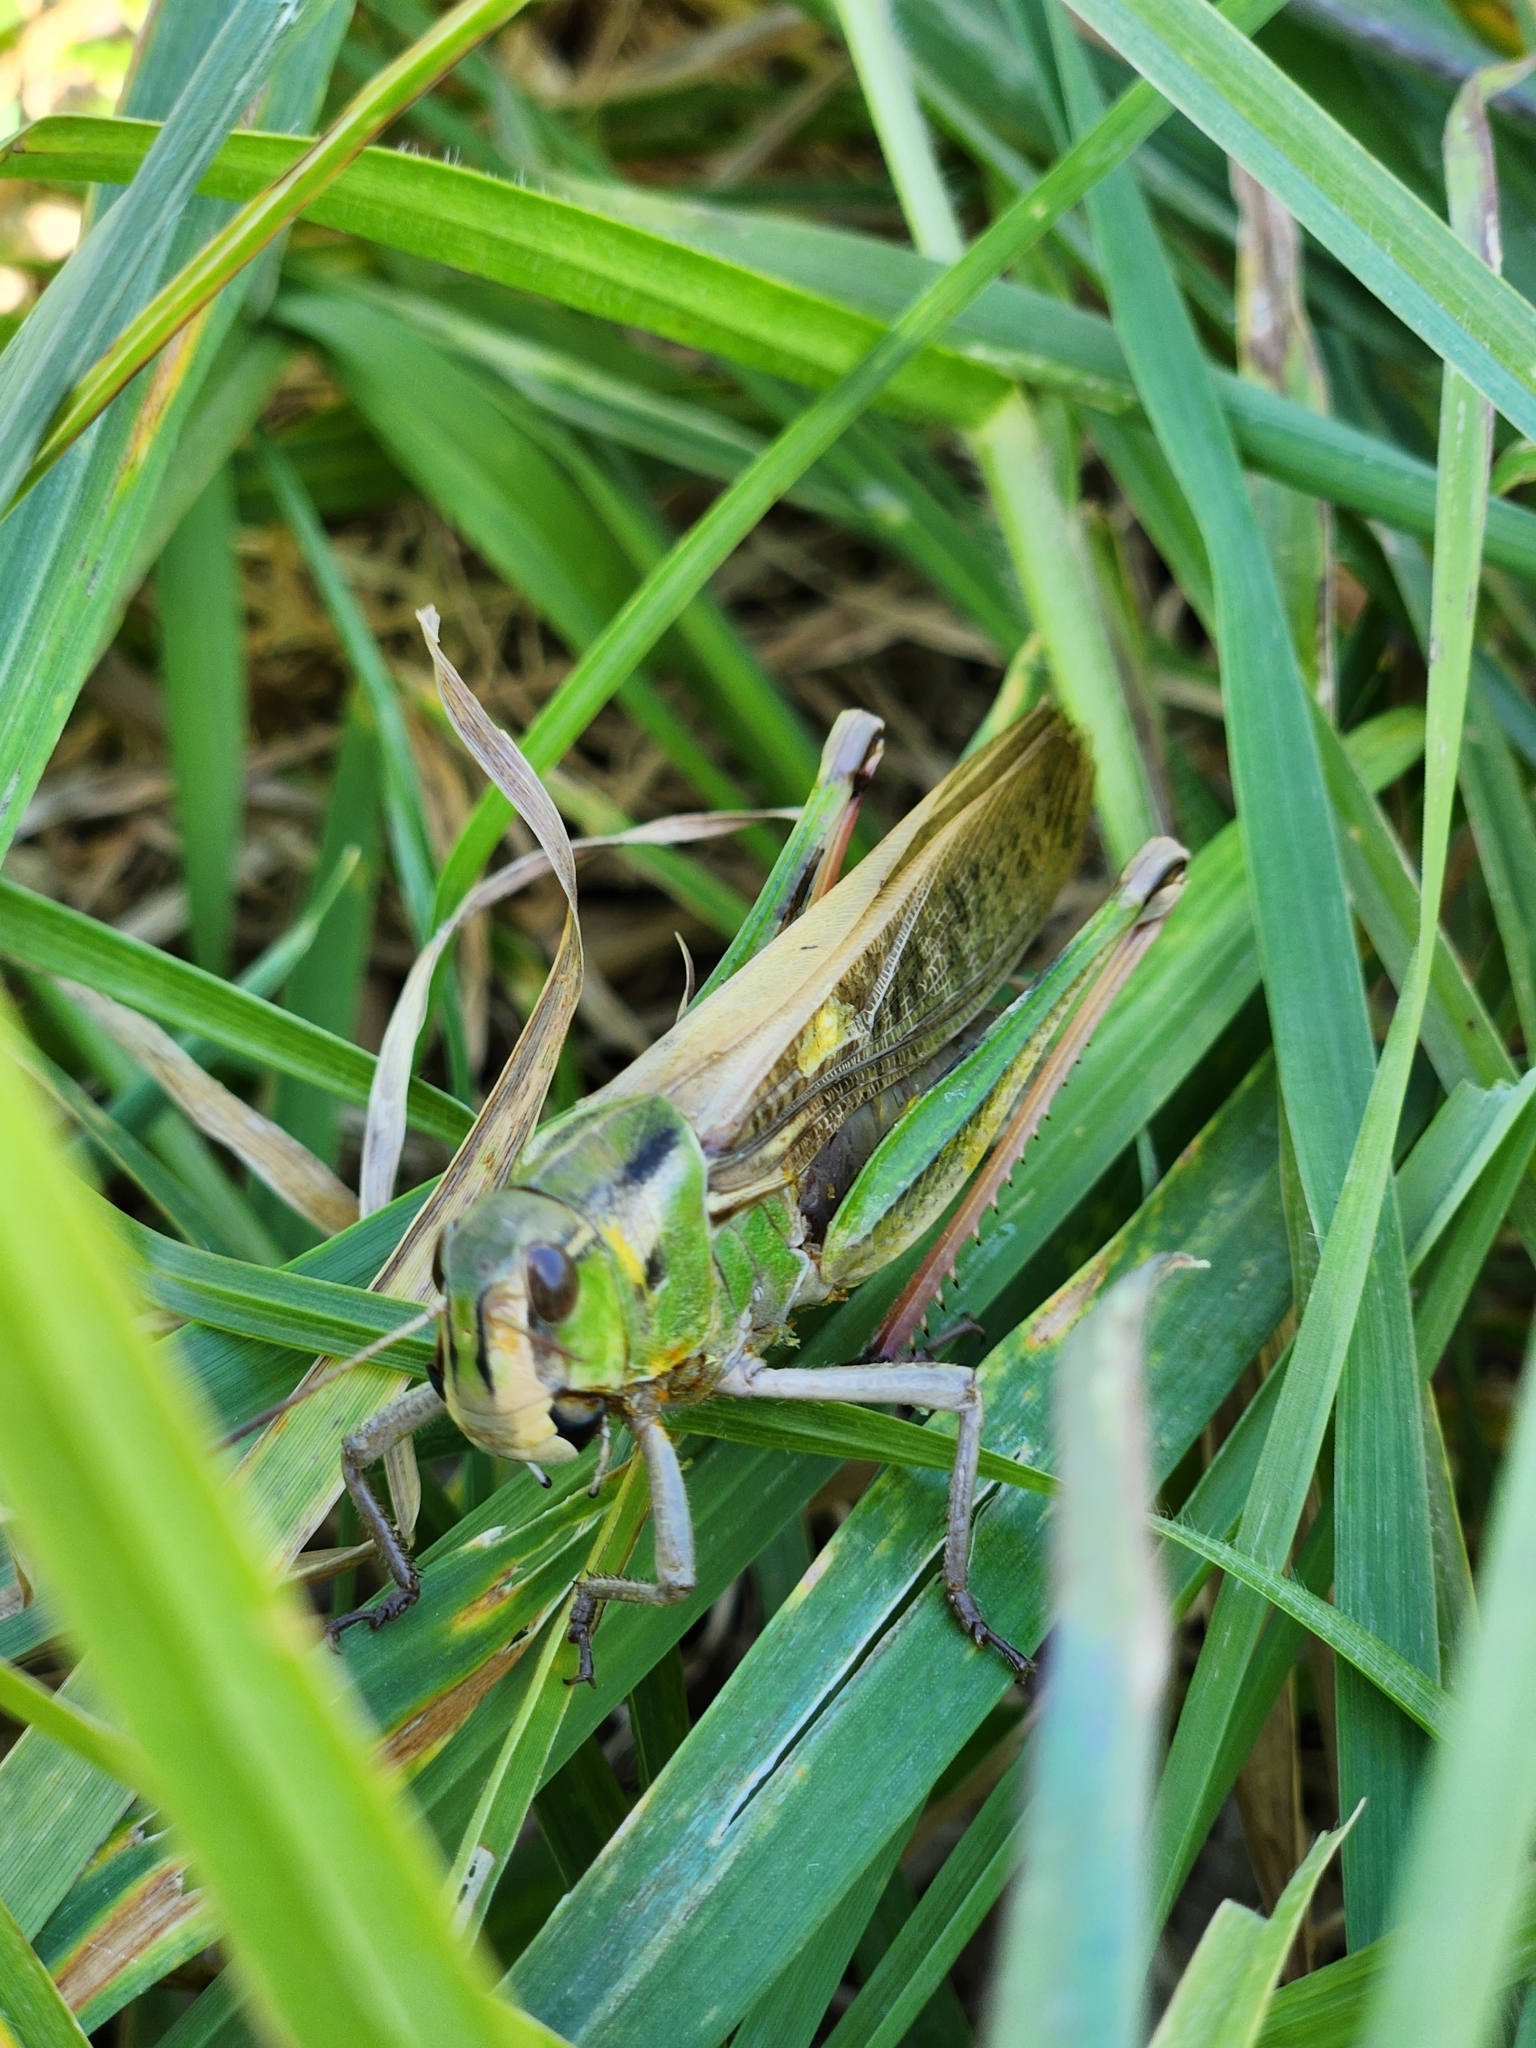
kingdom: Animalia
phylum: Arthropoda
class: Insecta
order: Orthoptera
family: Acrididae
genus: Locusta
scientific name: Locusta migratoria
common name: Migratory locust
